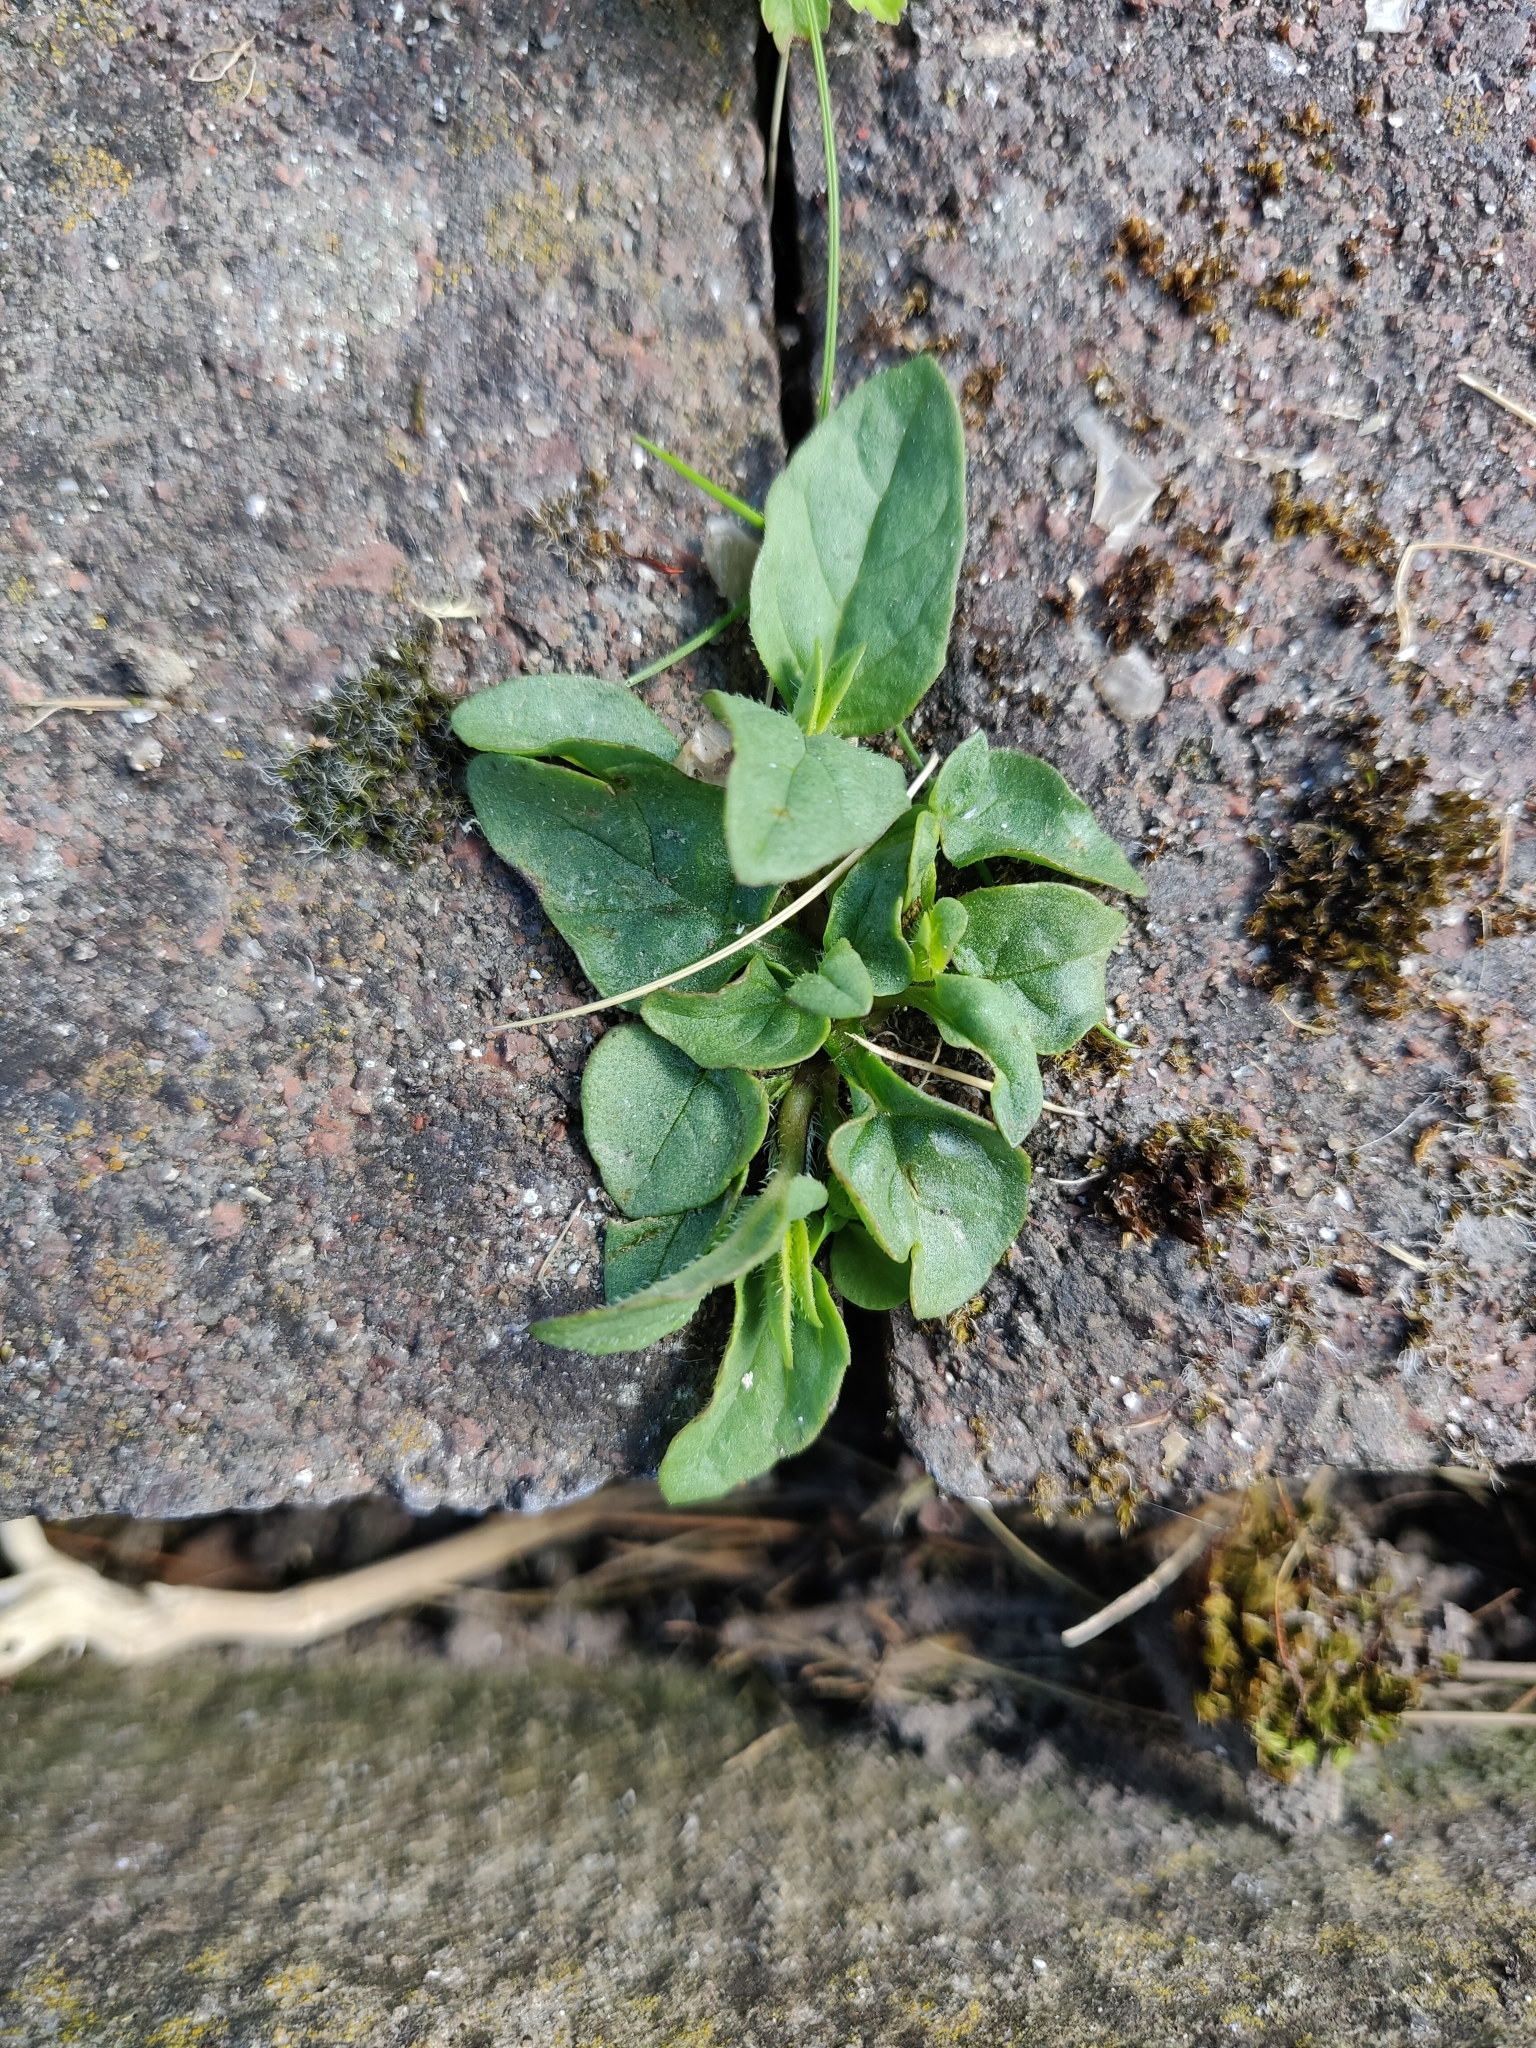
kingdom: Plantae
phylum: Tracheophyta
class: Magnoliopsida
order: Lamiales
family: Lamiaceae
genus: Prunella
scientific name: Prunella vulgaris
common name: Heal-all
